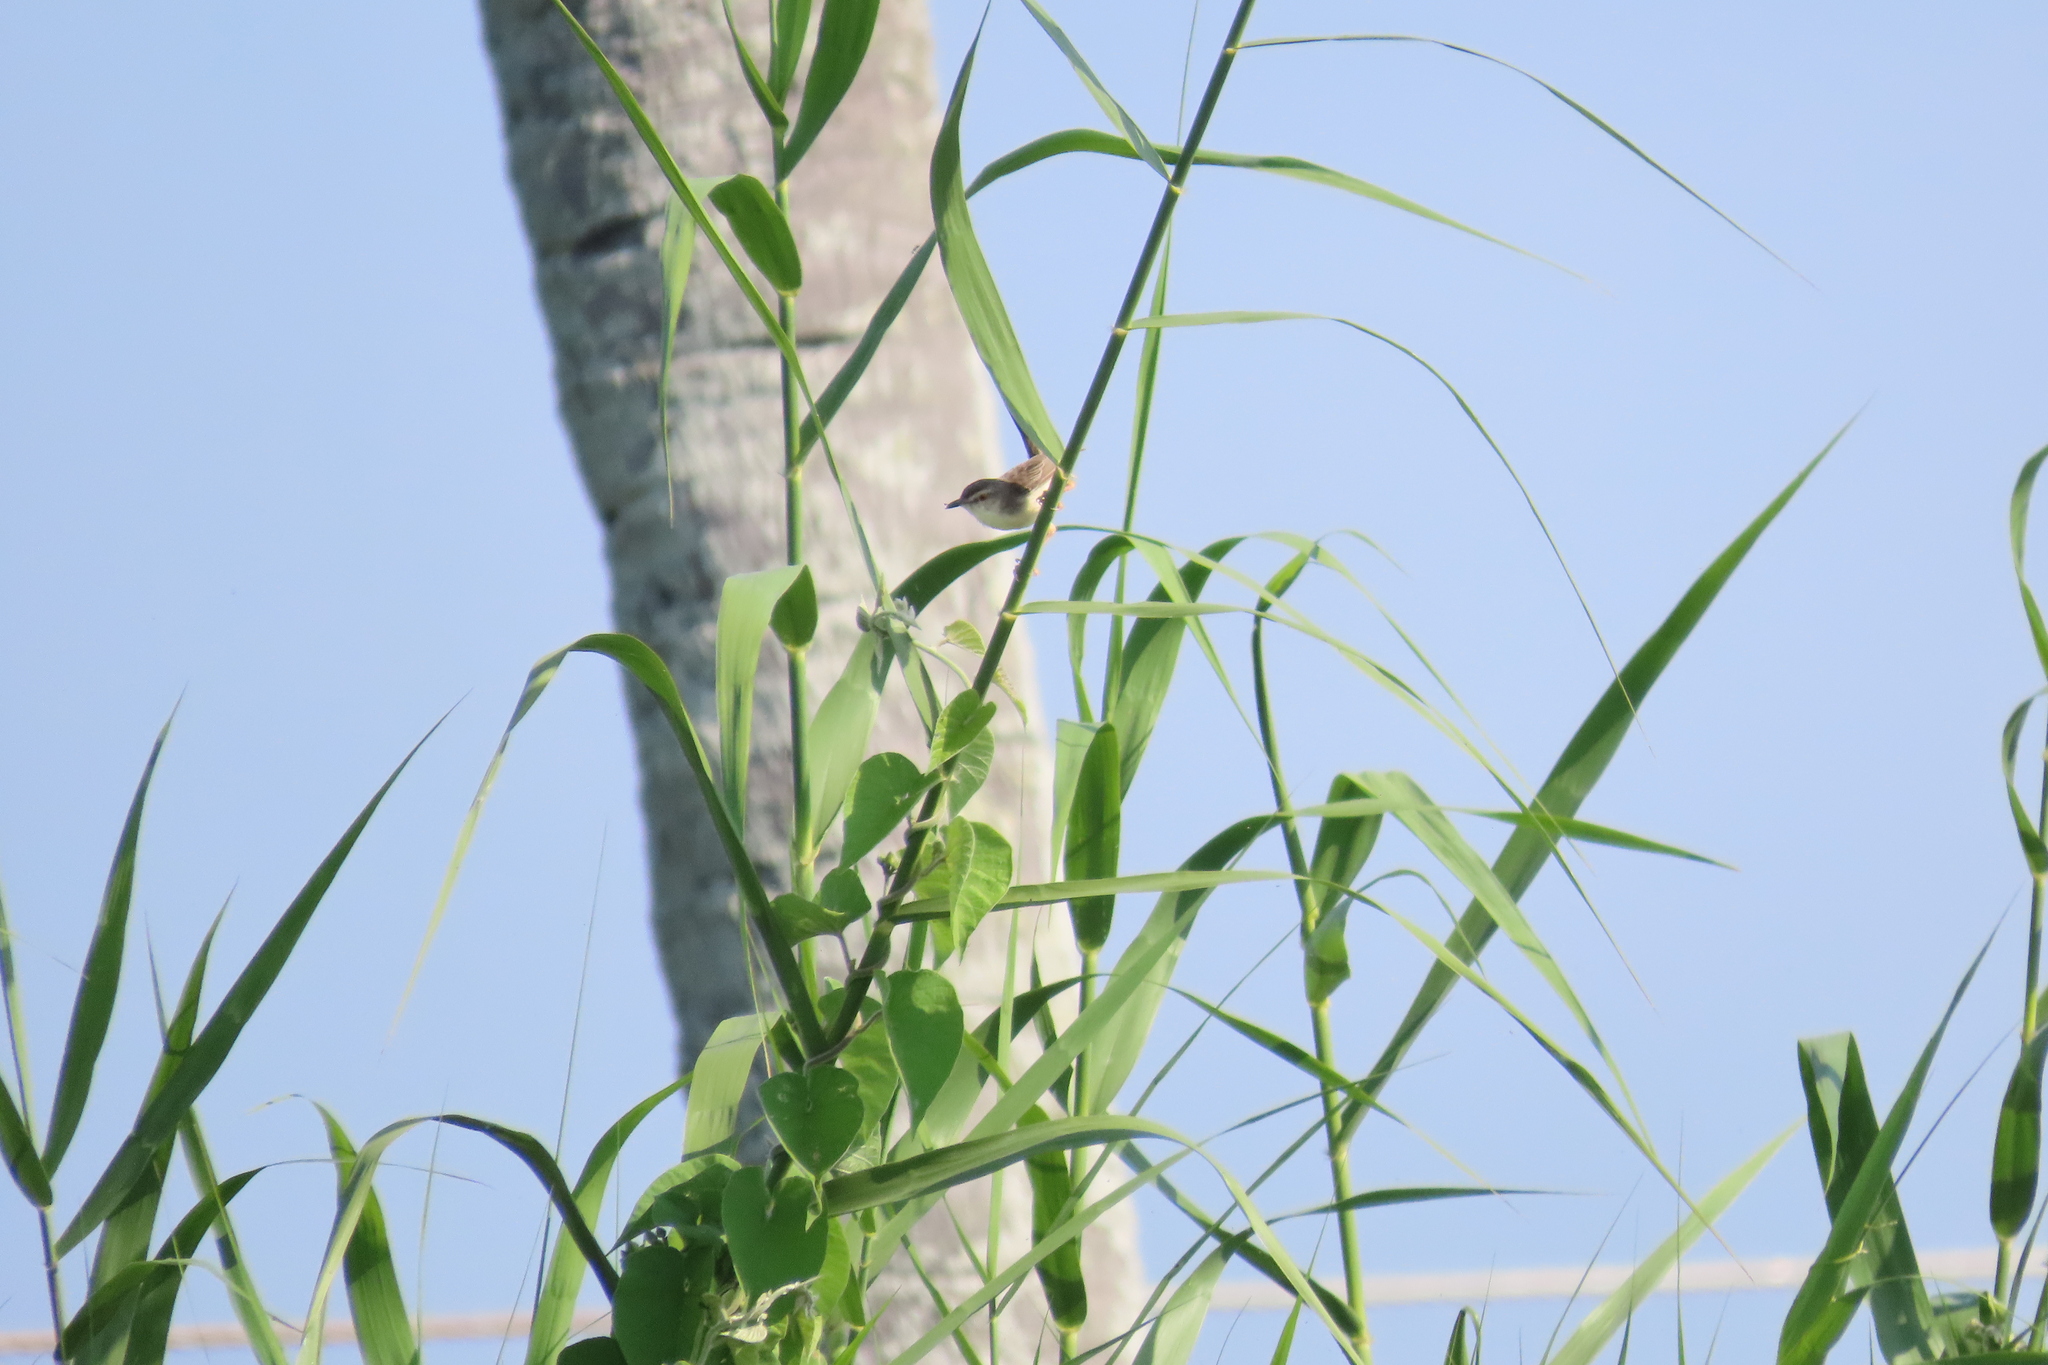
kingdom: Animalia
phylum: Chordata
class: Aves
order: Passeriformes
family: Cisticolidae
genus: Prinia
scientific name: Prinia inornata
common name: Plain prinia
